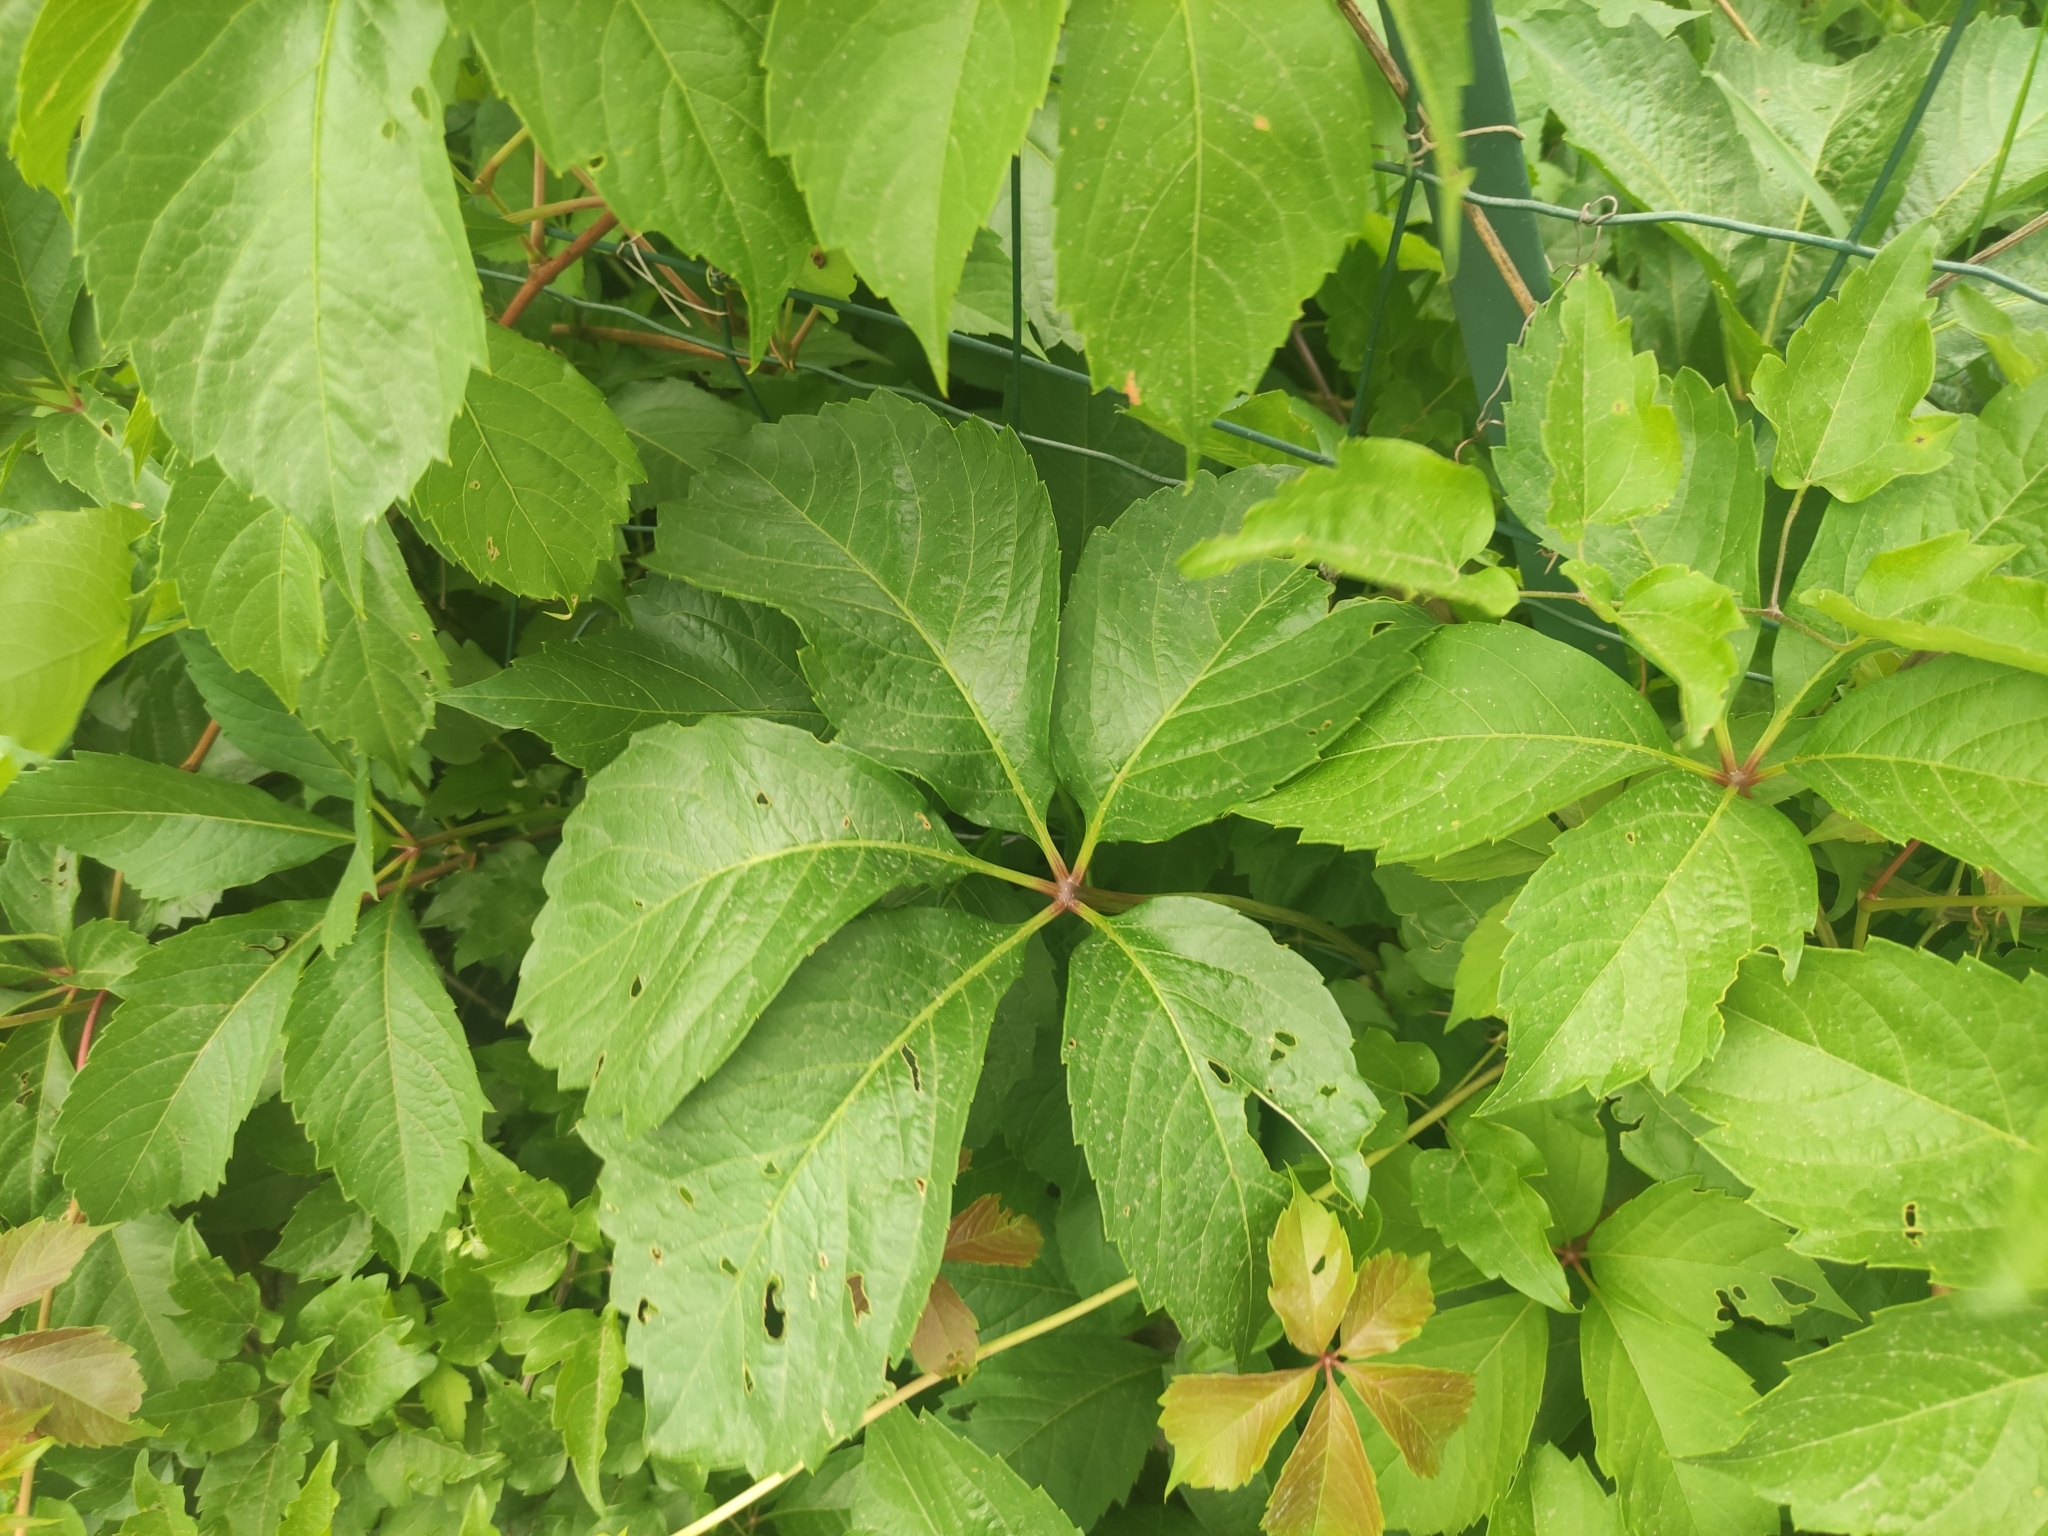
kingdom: Plantae
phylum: Tracheophyta
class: Magnoliopsida
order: Vitales
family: Vitaceae
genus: Parthenocissus
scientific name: Parthenocissus inserta
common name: False virginia-creeper
